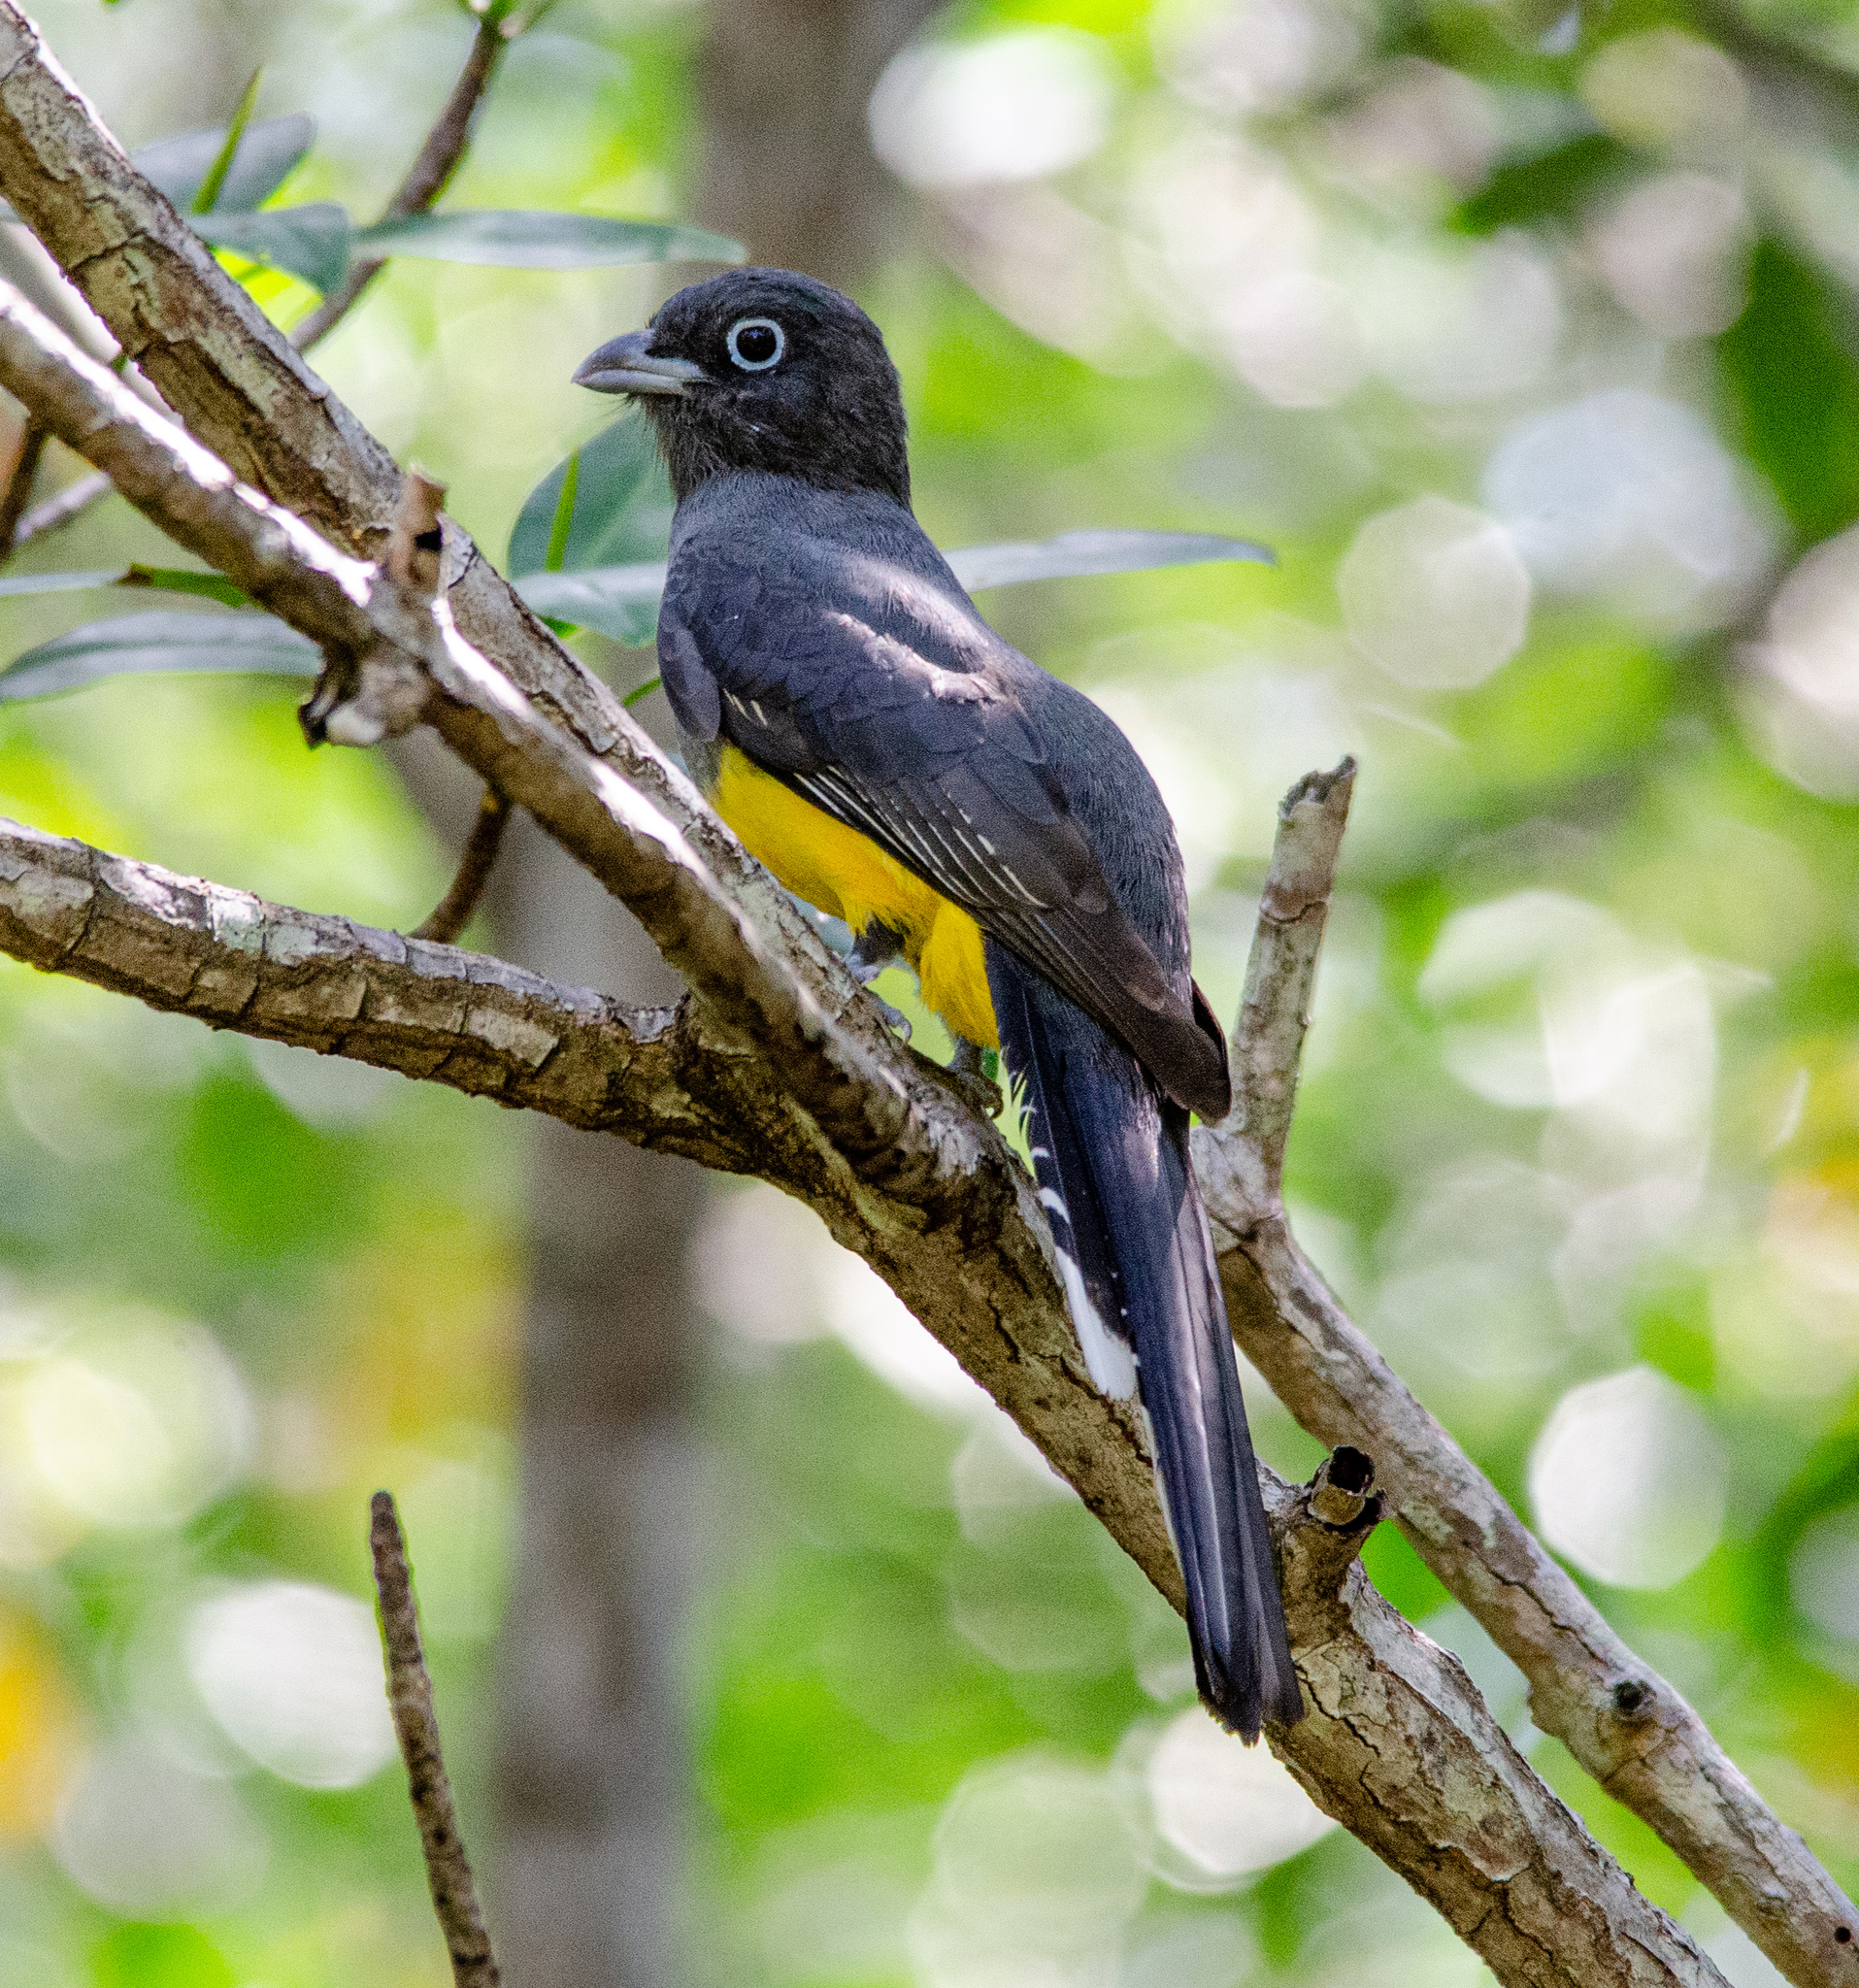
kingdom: Animalia
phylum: Chordata
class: Aves
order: Trogoniformes
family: Trogonidae
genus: Trogon
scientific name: Trogon melanocephalus
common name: Black-headed trogon
